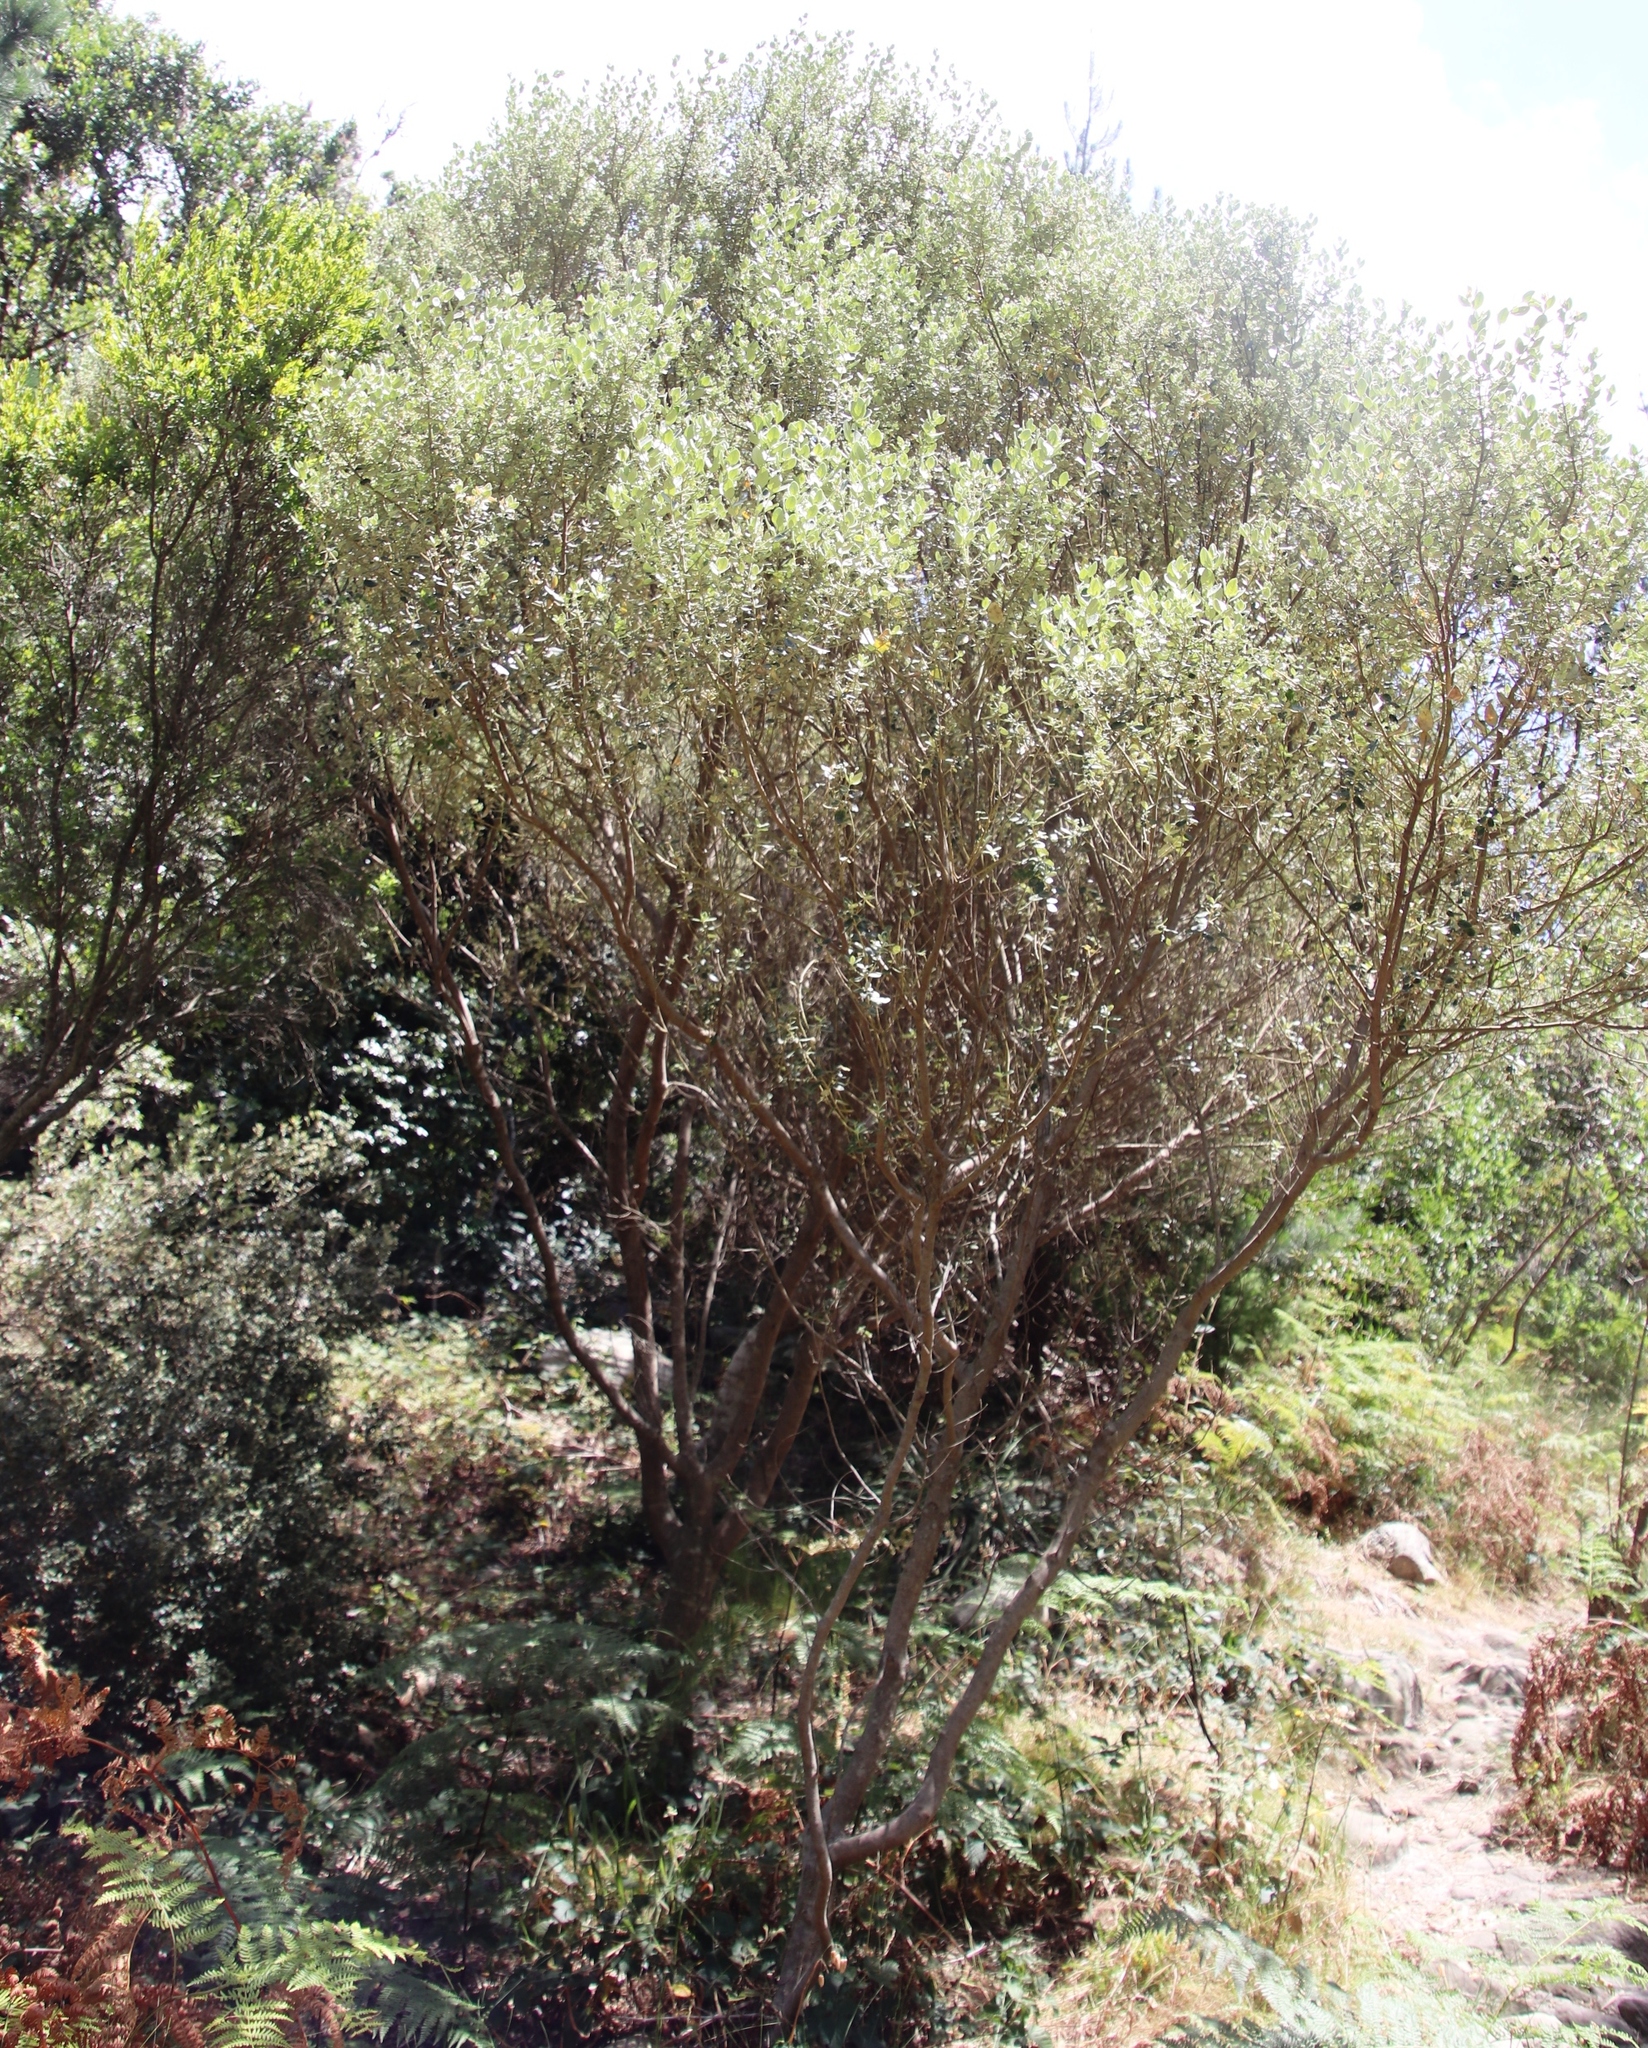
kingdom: Plantae
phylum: Tracheophyta
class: Magnoliopsida
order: Rosales
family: Rhamnaceae
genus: Phylica
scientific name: Phylica buxifolia
